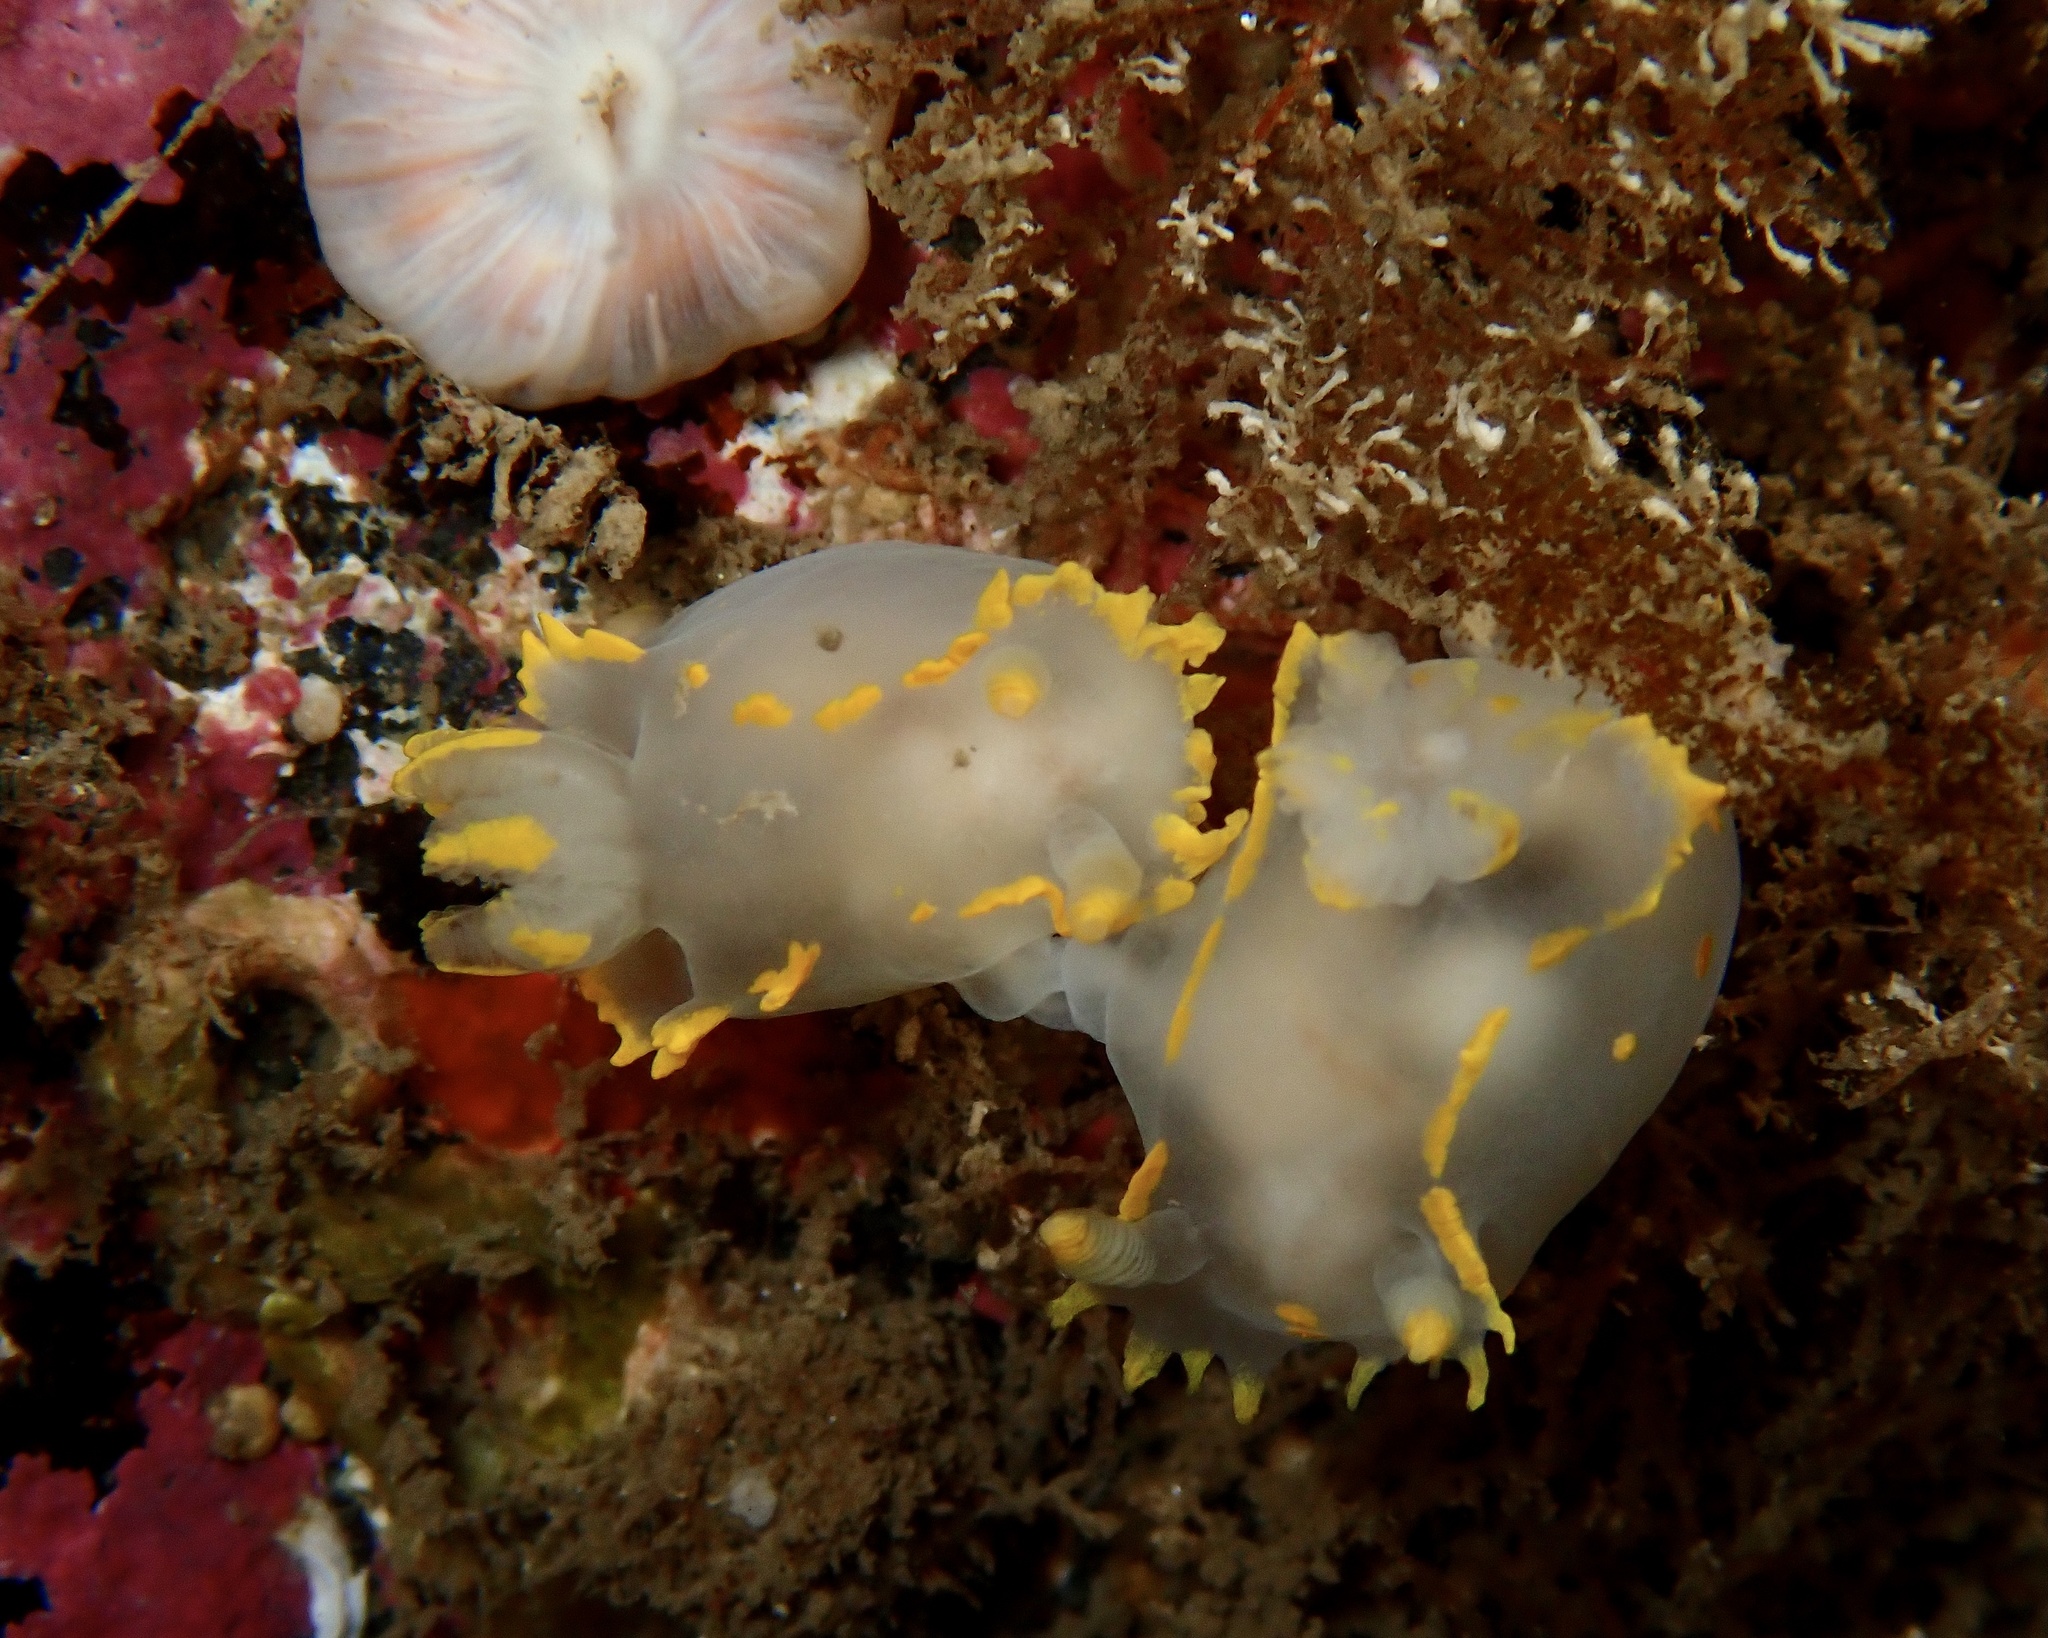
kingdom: Animalia
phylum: Mollusca
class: Gastropoda
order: Nudibranchia
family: Polyceridae
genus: Polycera
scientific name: Polycera faeroensis
